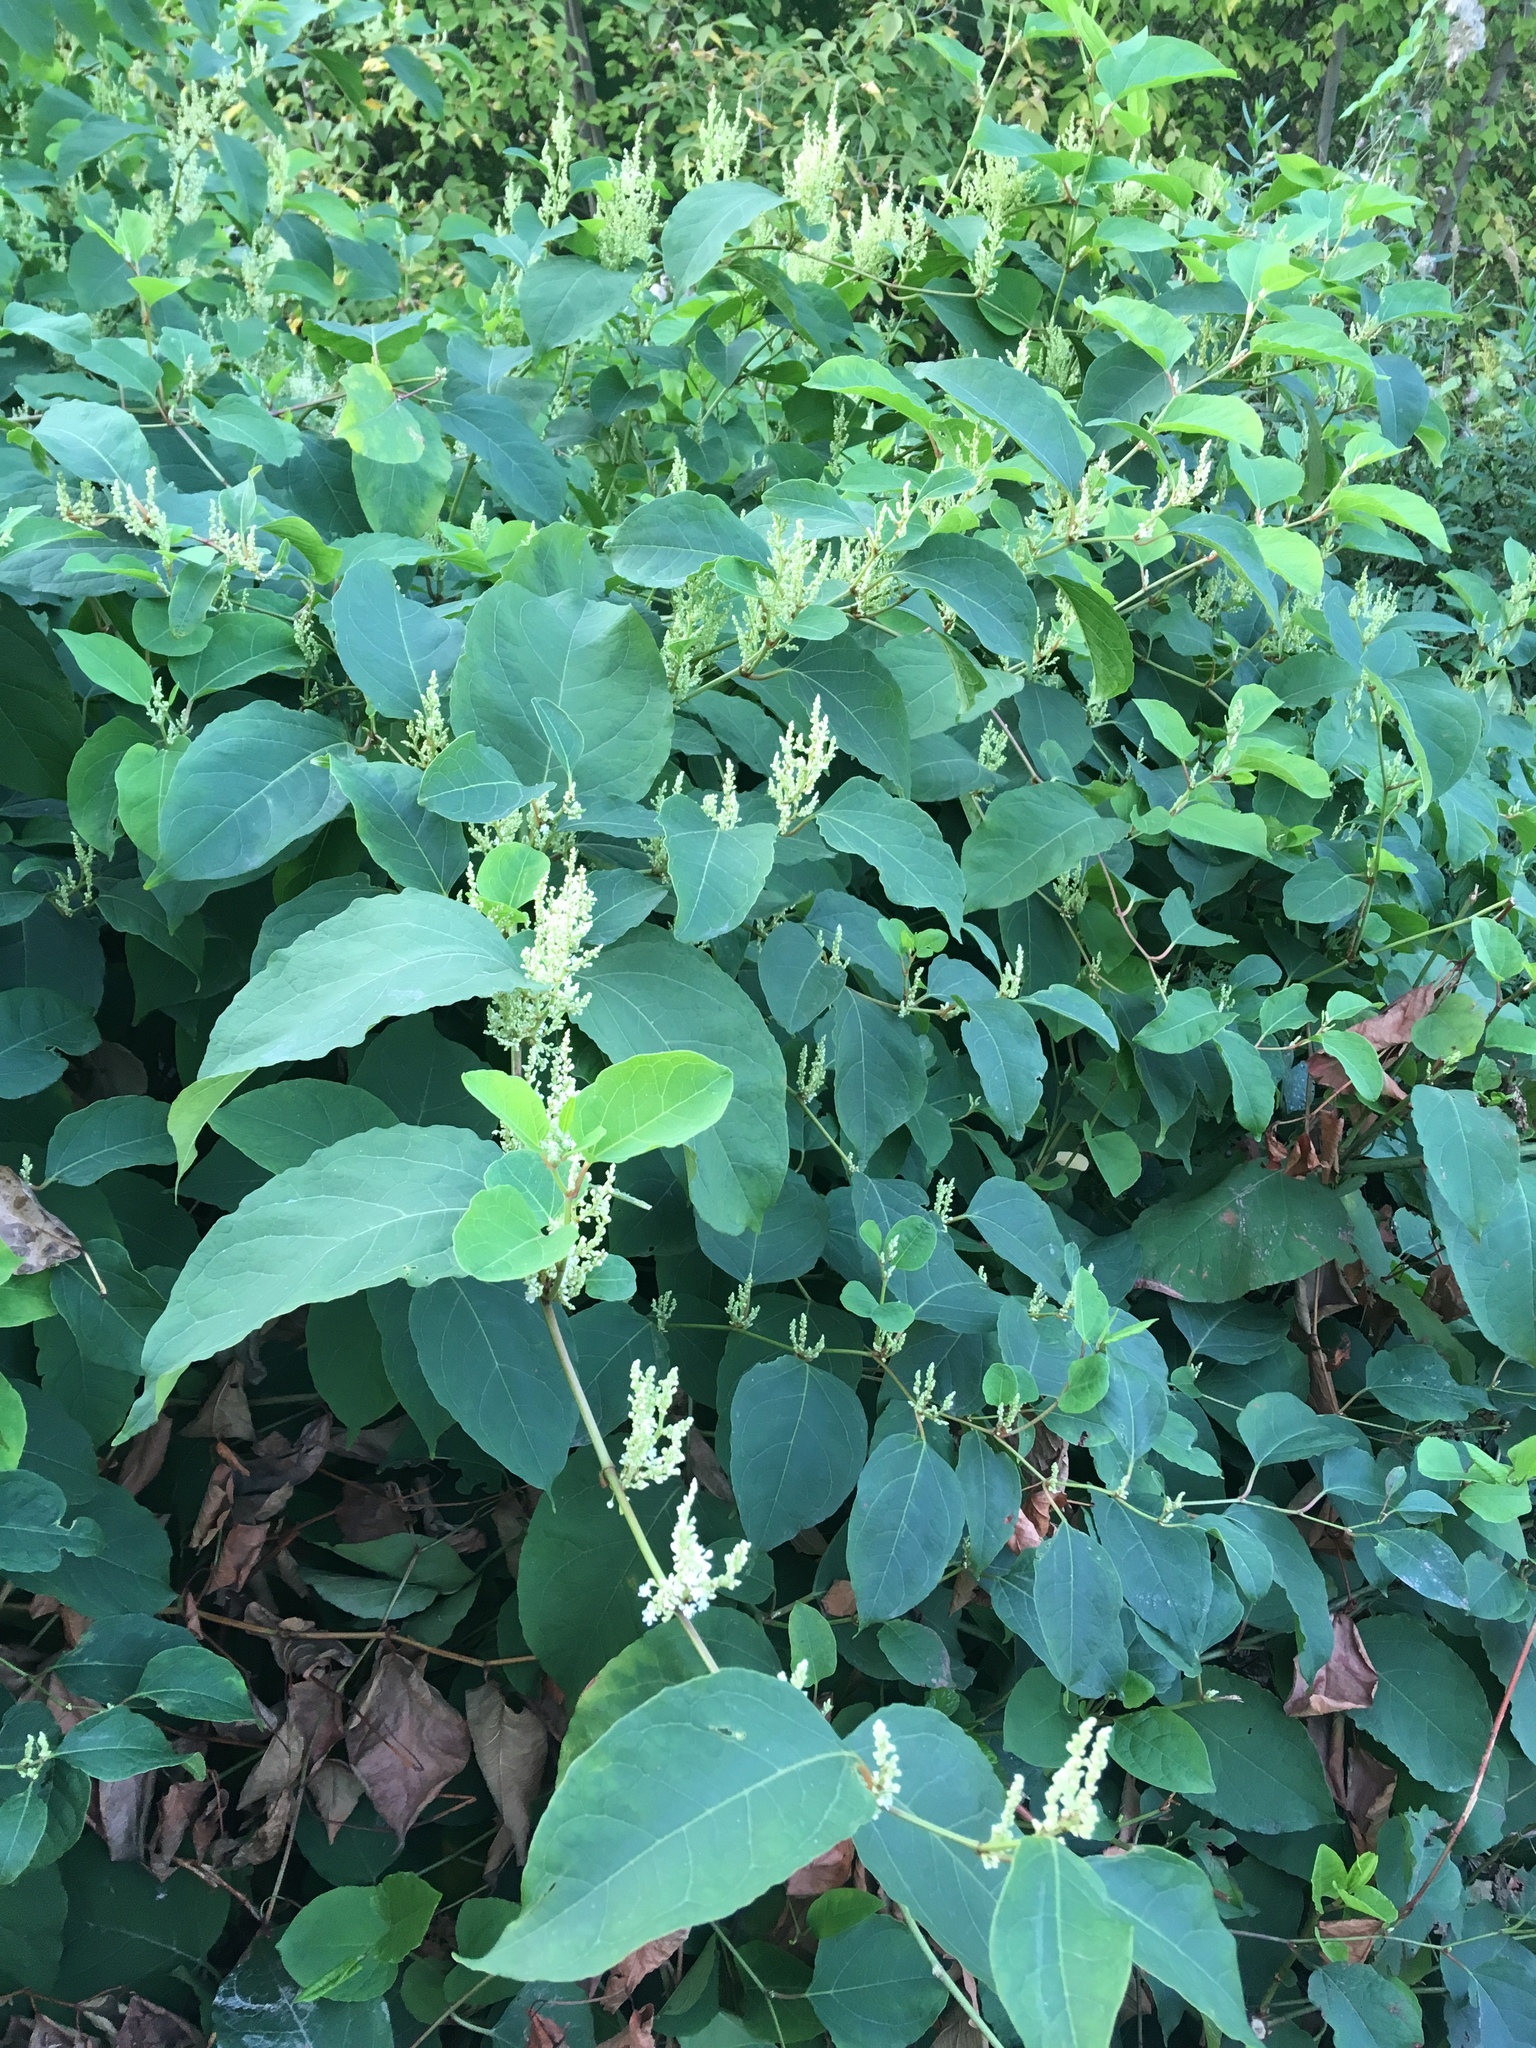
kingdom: Plantae
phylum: Tracheophyta
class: Magnoliopsida
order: Caryophyllales
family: Polygonaceae
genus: Reynoutria
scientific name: Reynoutria bohemica
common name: Bohemian knotweed
